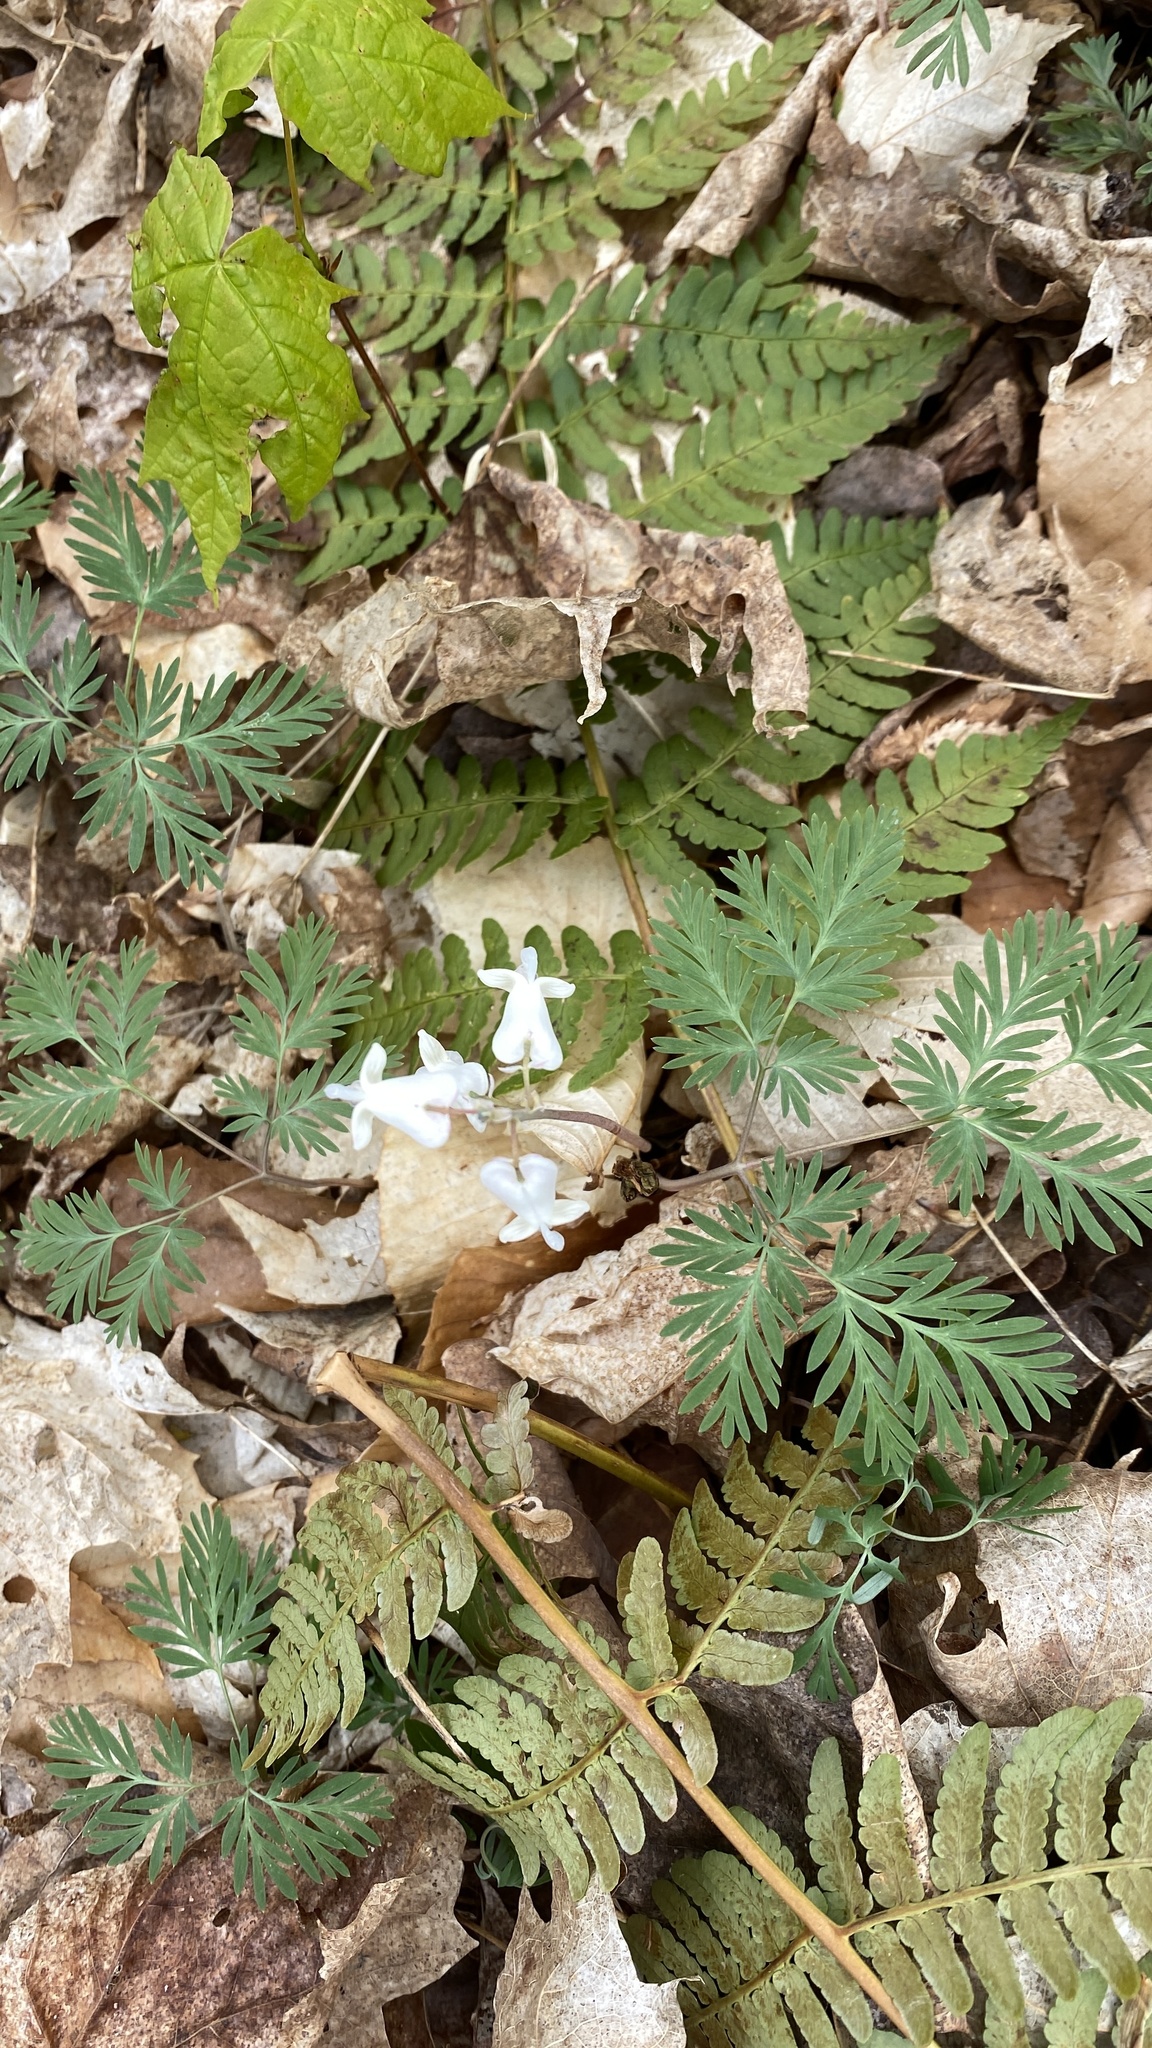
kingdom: Plantae
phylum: Tracheophyta
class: Magnoliopsida
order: Ranunculales
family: Papaveraceae
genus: Dicentra
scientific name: Dicentra canadensis
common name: Squirrel-corn
